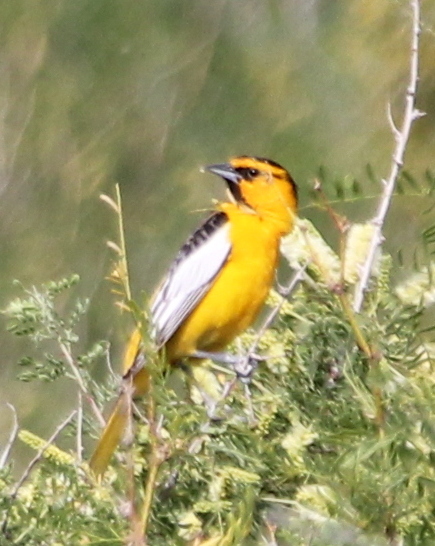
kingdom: Animalia
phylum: Chordata
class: Aves
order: Passeriformes
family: Icteridae
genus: Icterus
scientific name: Icterus bullockii
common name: Bullock's oriole
